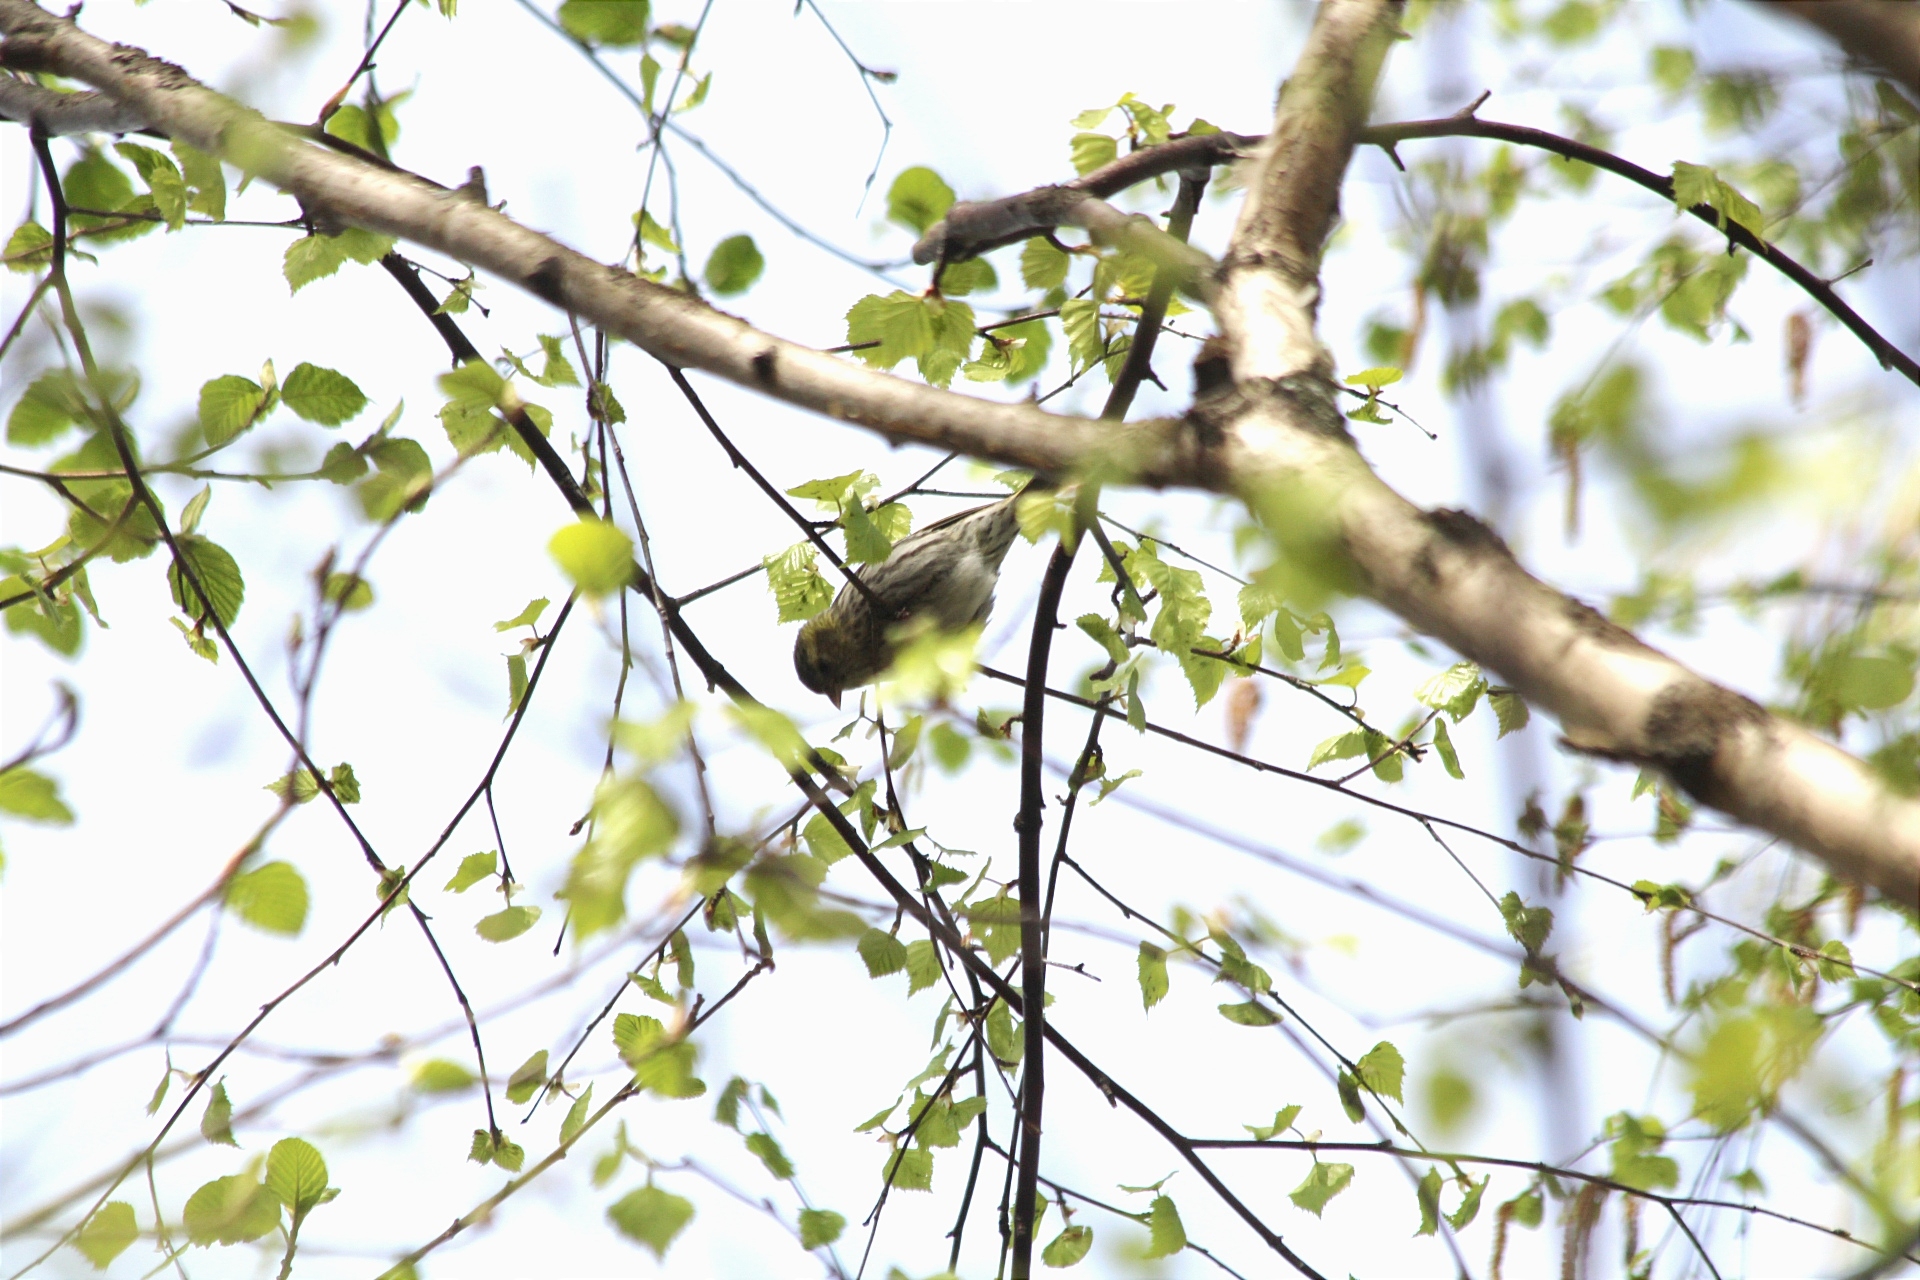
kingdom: Animalia
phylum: Chordata
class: Aves
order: Passeriformes
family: Fringillidae
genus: Spinus
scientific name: Spinus spinus
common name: Eurasian siskin
